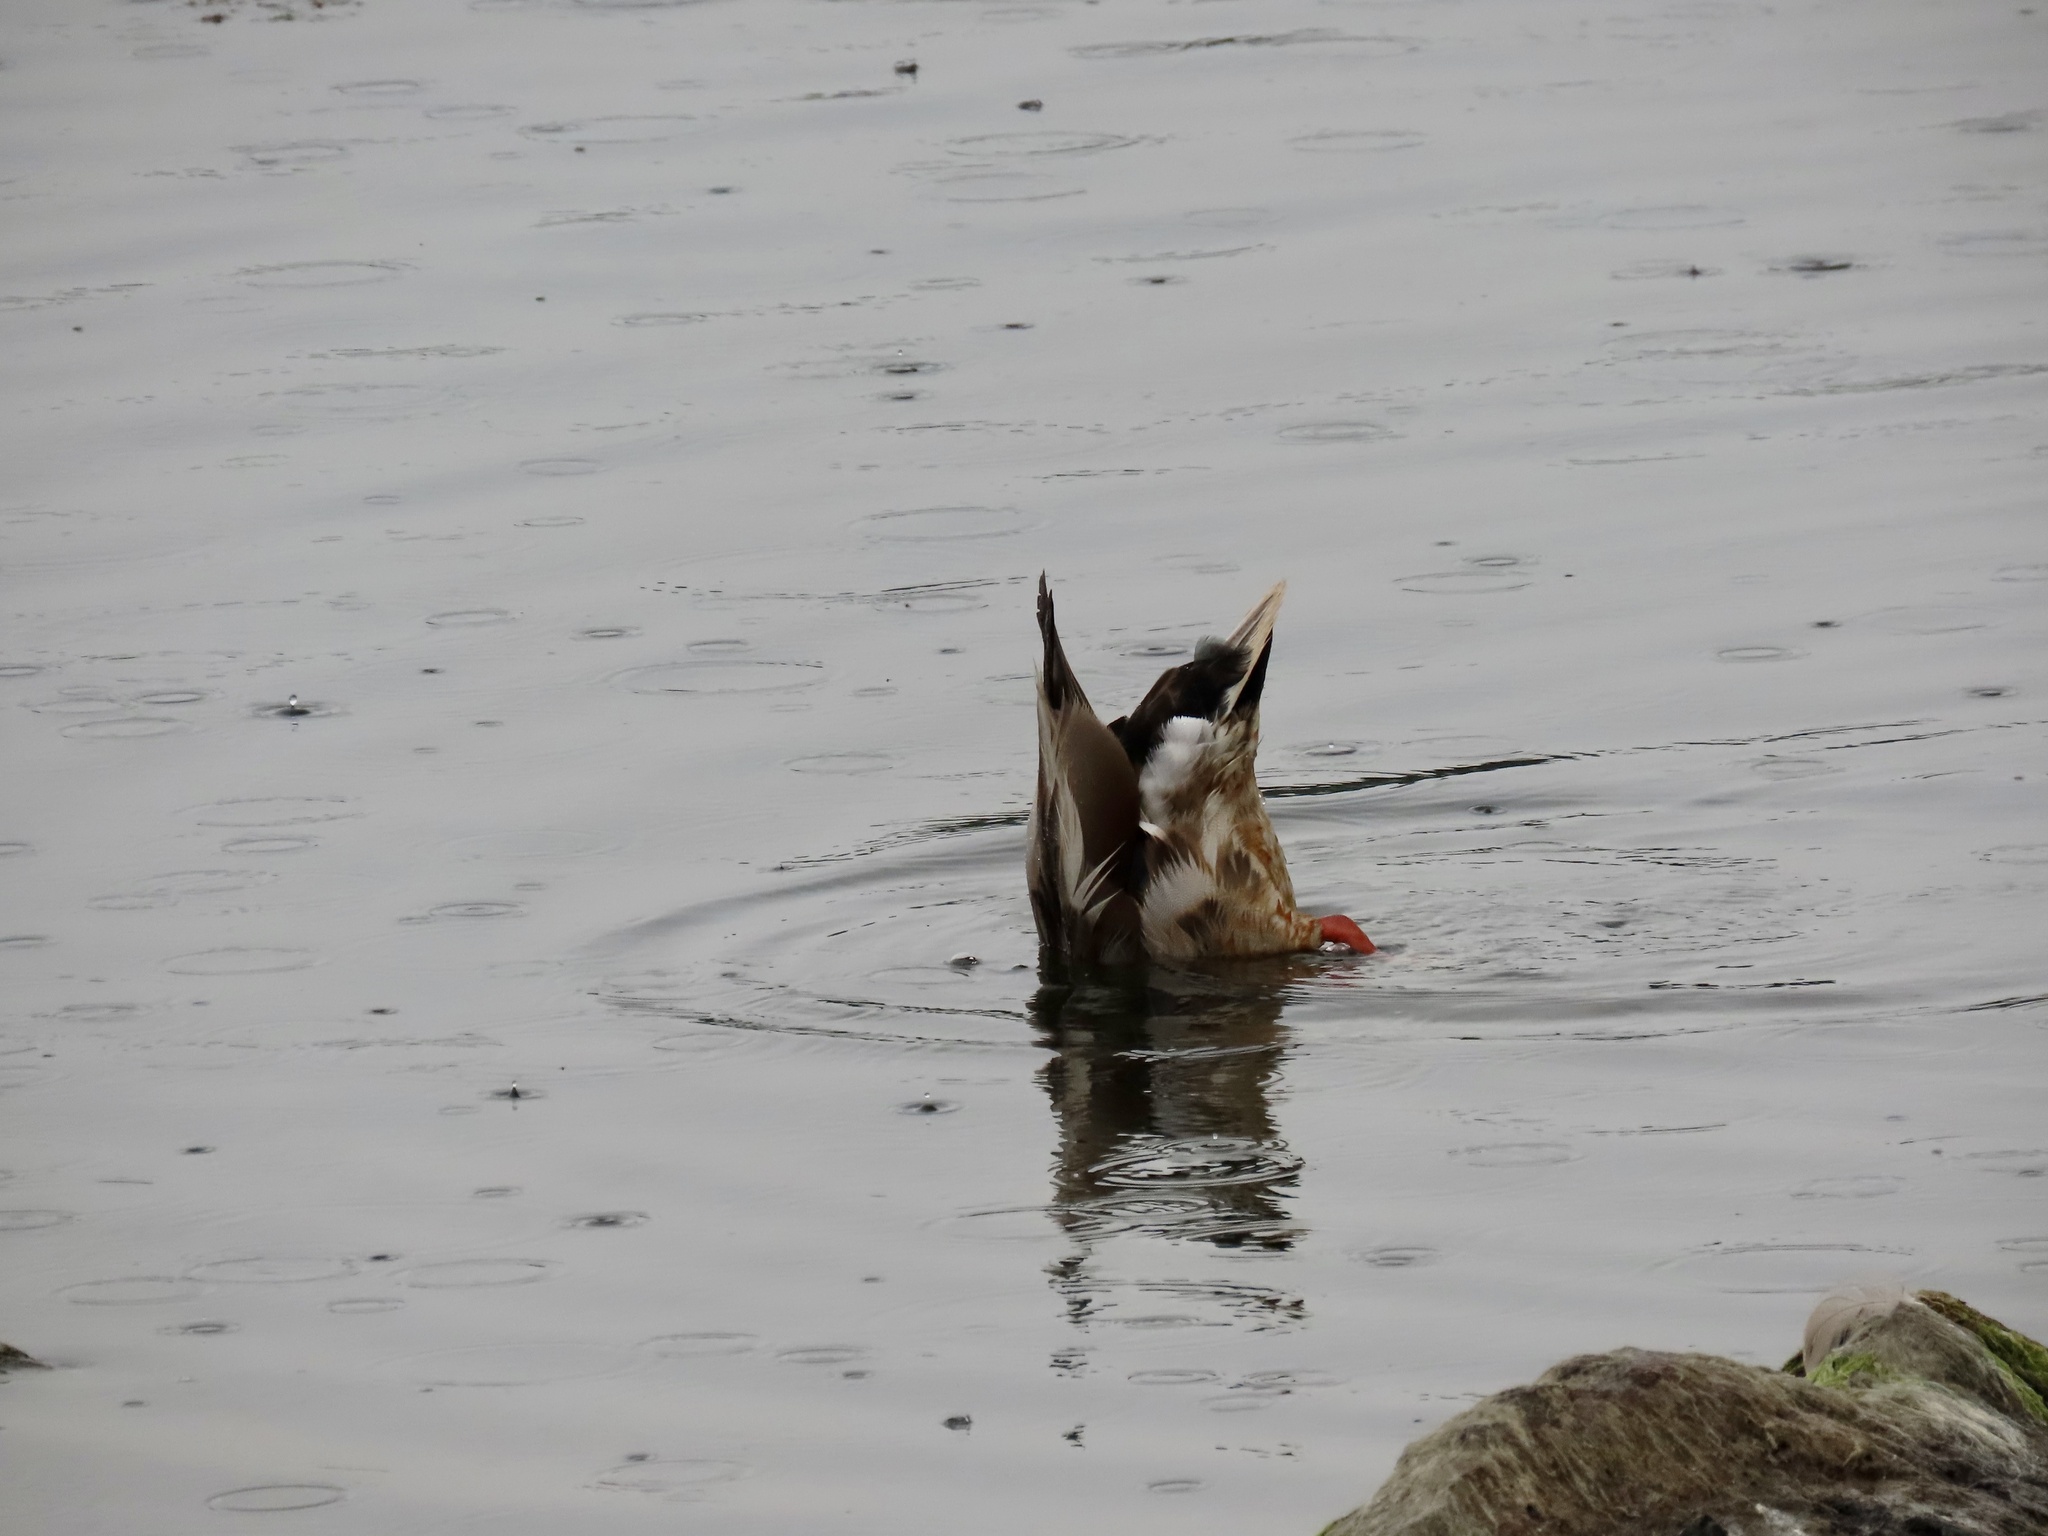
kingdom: Animalia
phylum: Chordata
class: Aves
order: Anseriformes
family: Anatidae
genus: Anas
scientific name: Anas platyrhynchos
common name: Mallard
